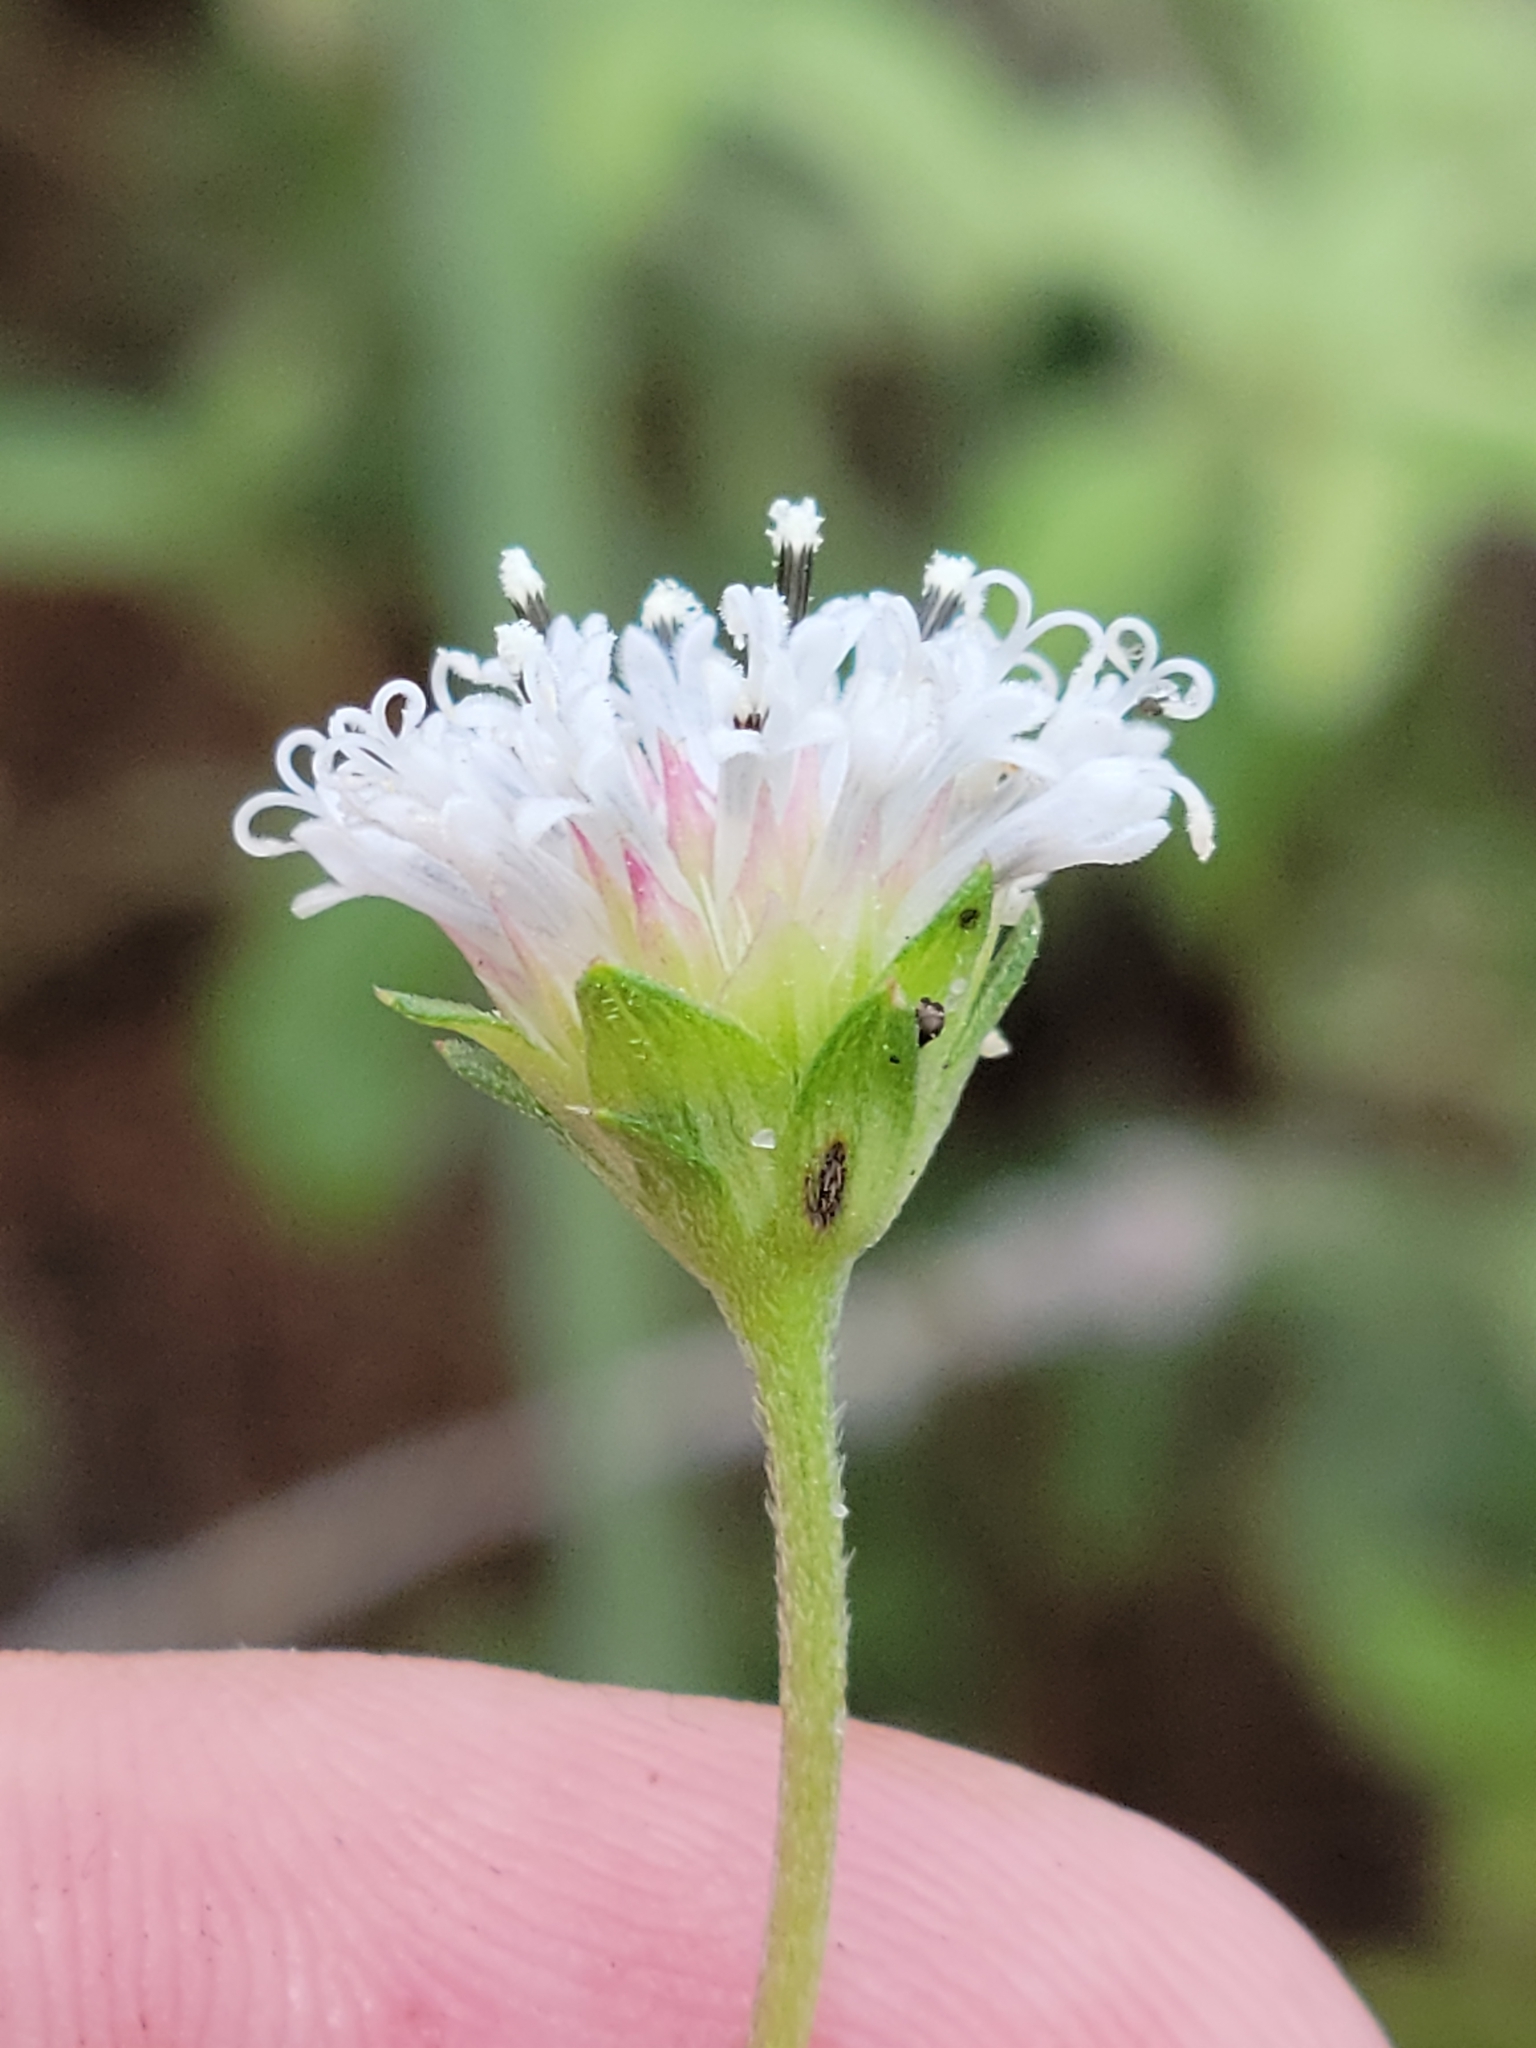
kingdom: Plantae
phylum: Tracheophyta
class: Magnoliopsida
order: Asterales
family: Asteraceae
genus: Melanthera
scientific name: Melanthera parvifolia
